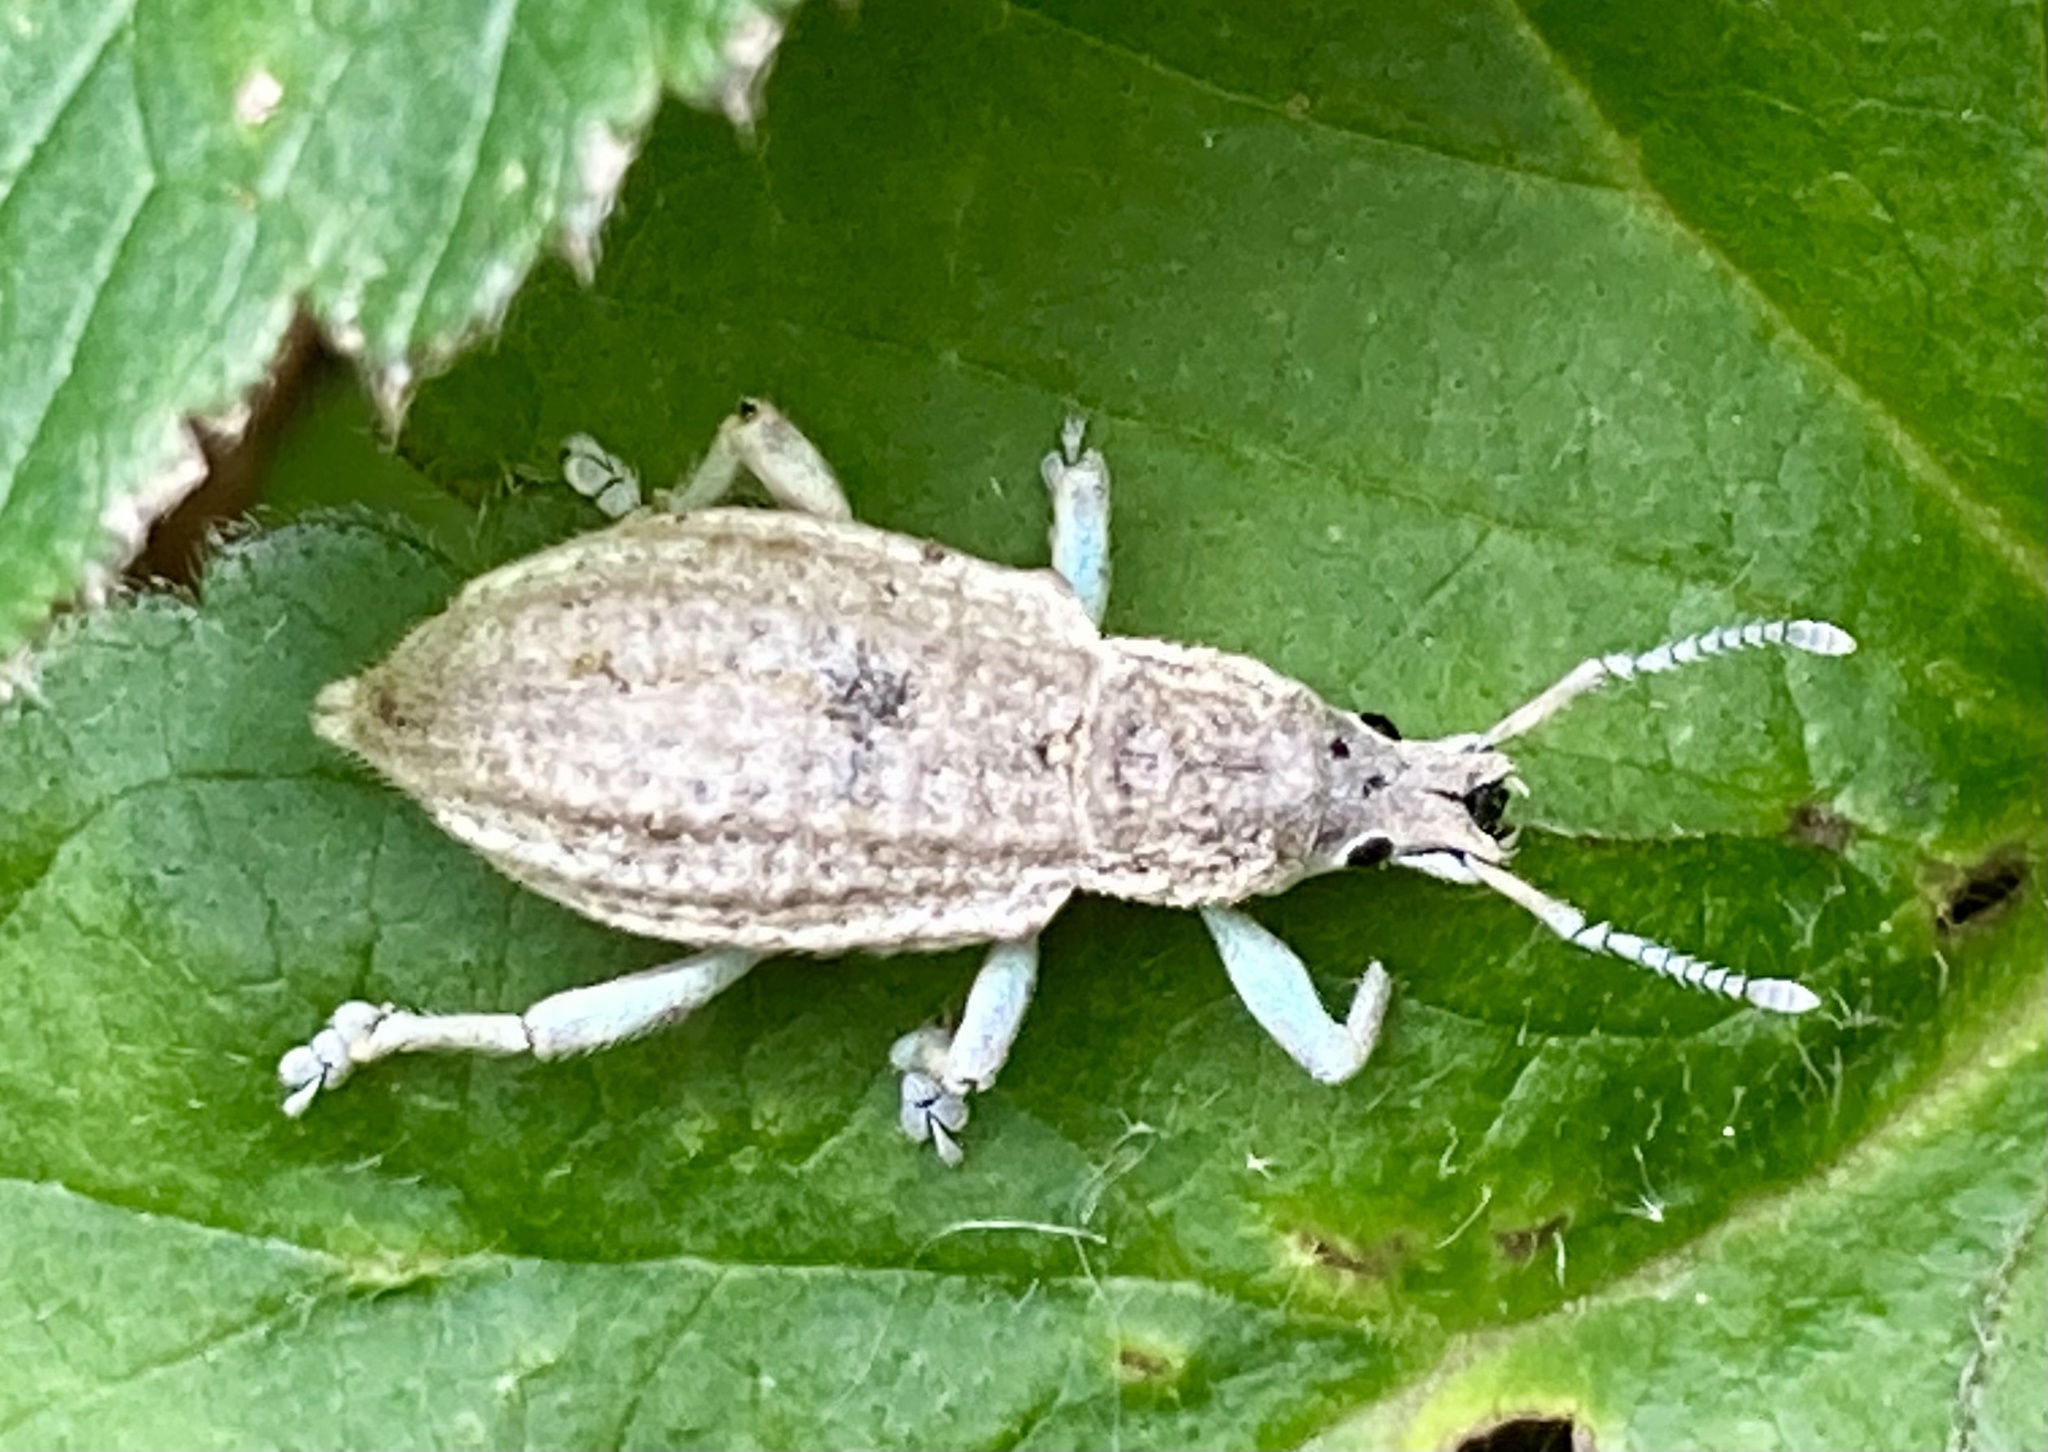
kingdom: Animalia
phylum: Arthropoda
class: Insecta
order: Coleoptera
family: Curculionidae
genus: Compsus
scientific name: Compsus canescens
